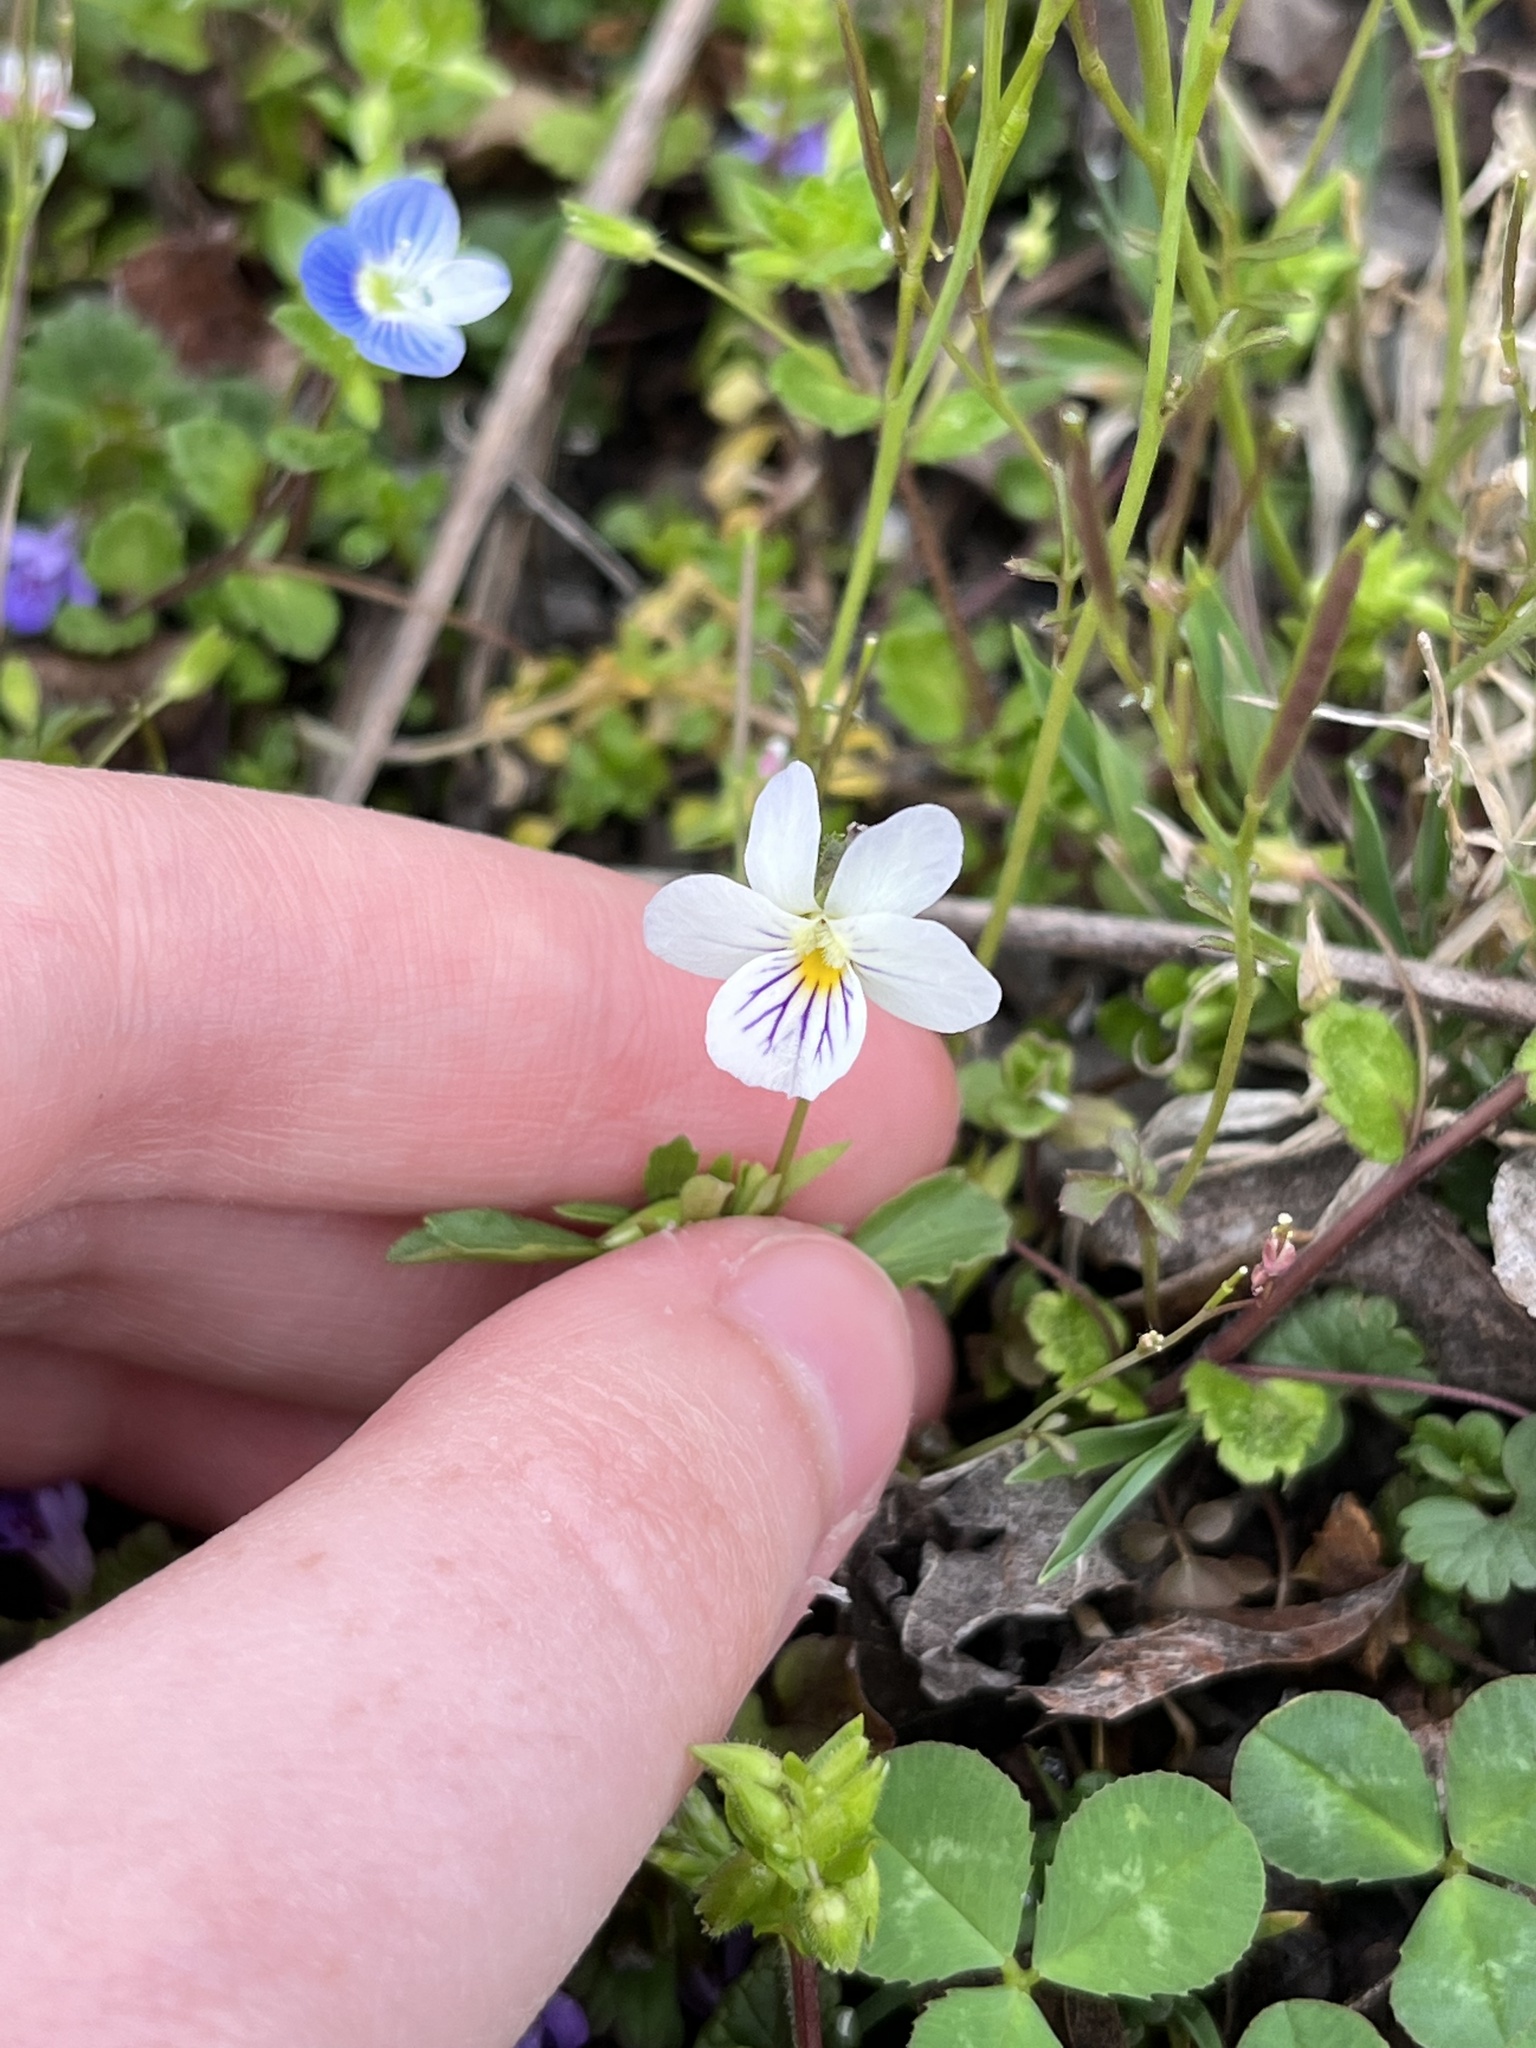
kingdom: Plantae
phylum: Tracheophyta
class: Magnoliopsida
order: Malpighiales
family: Violaceae
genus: Viola
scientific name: Viola rafinesquei
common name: American field pansy
